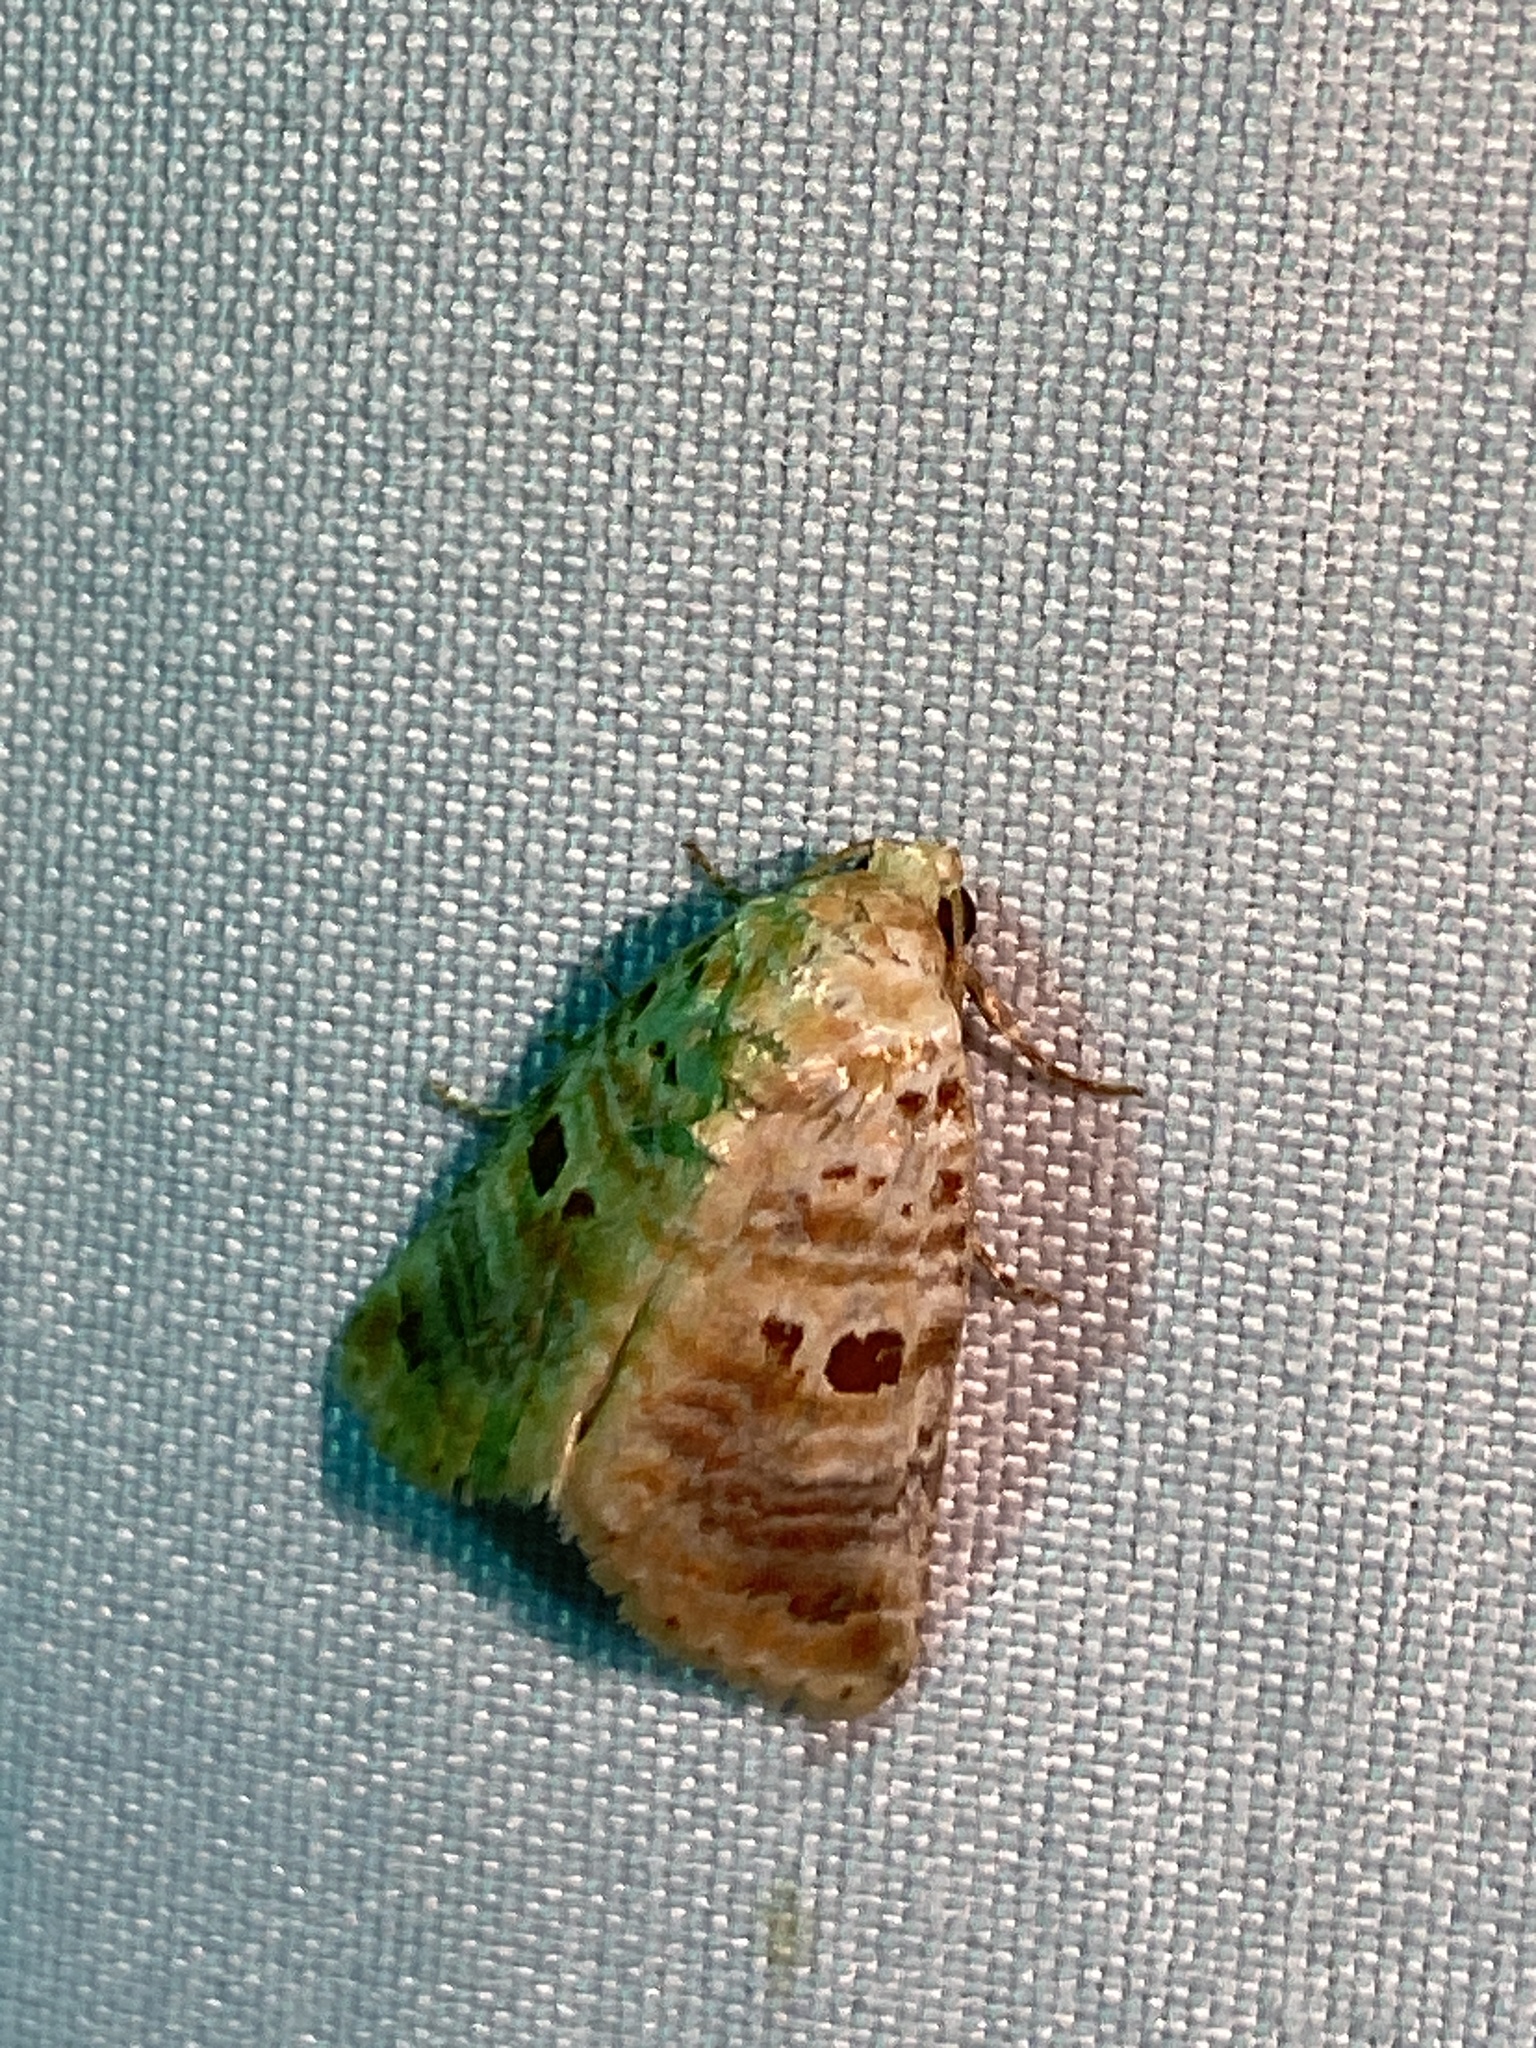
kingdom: Animalia
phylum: Arthropoda
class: Insecta
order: Lepidoptera
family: Noctuidae
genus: Diastema
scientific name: Diastema tigris
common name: Lantana moth
